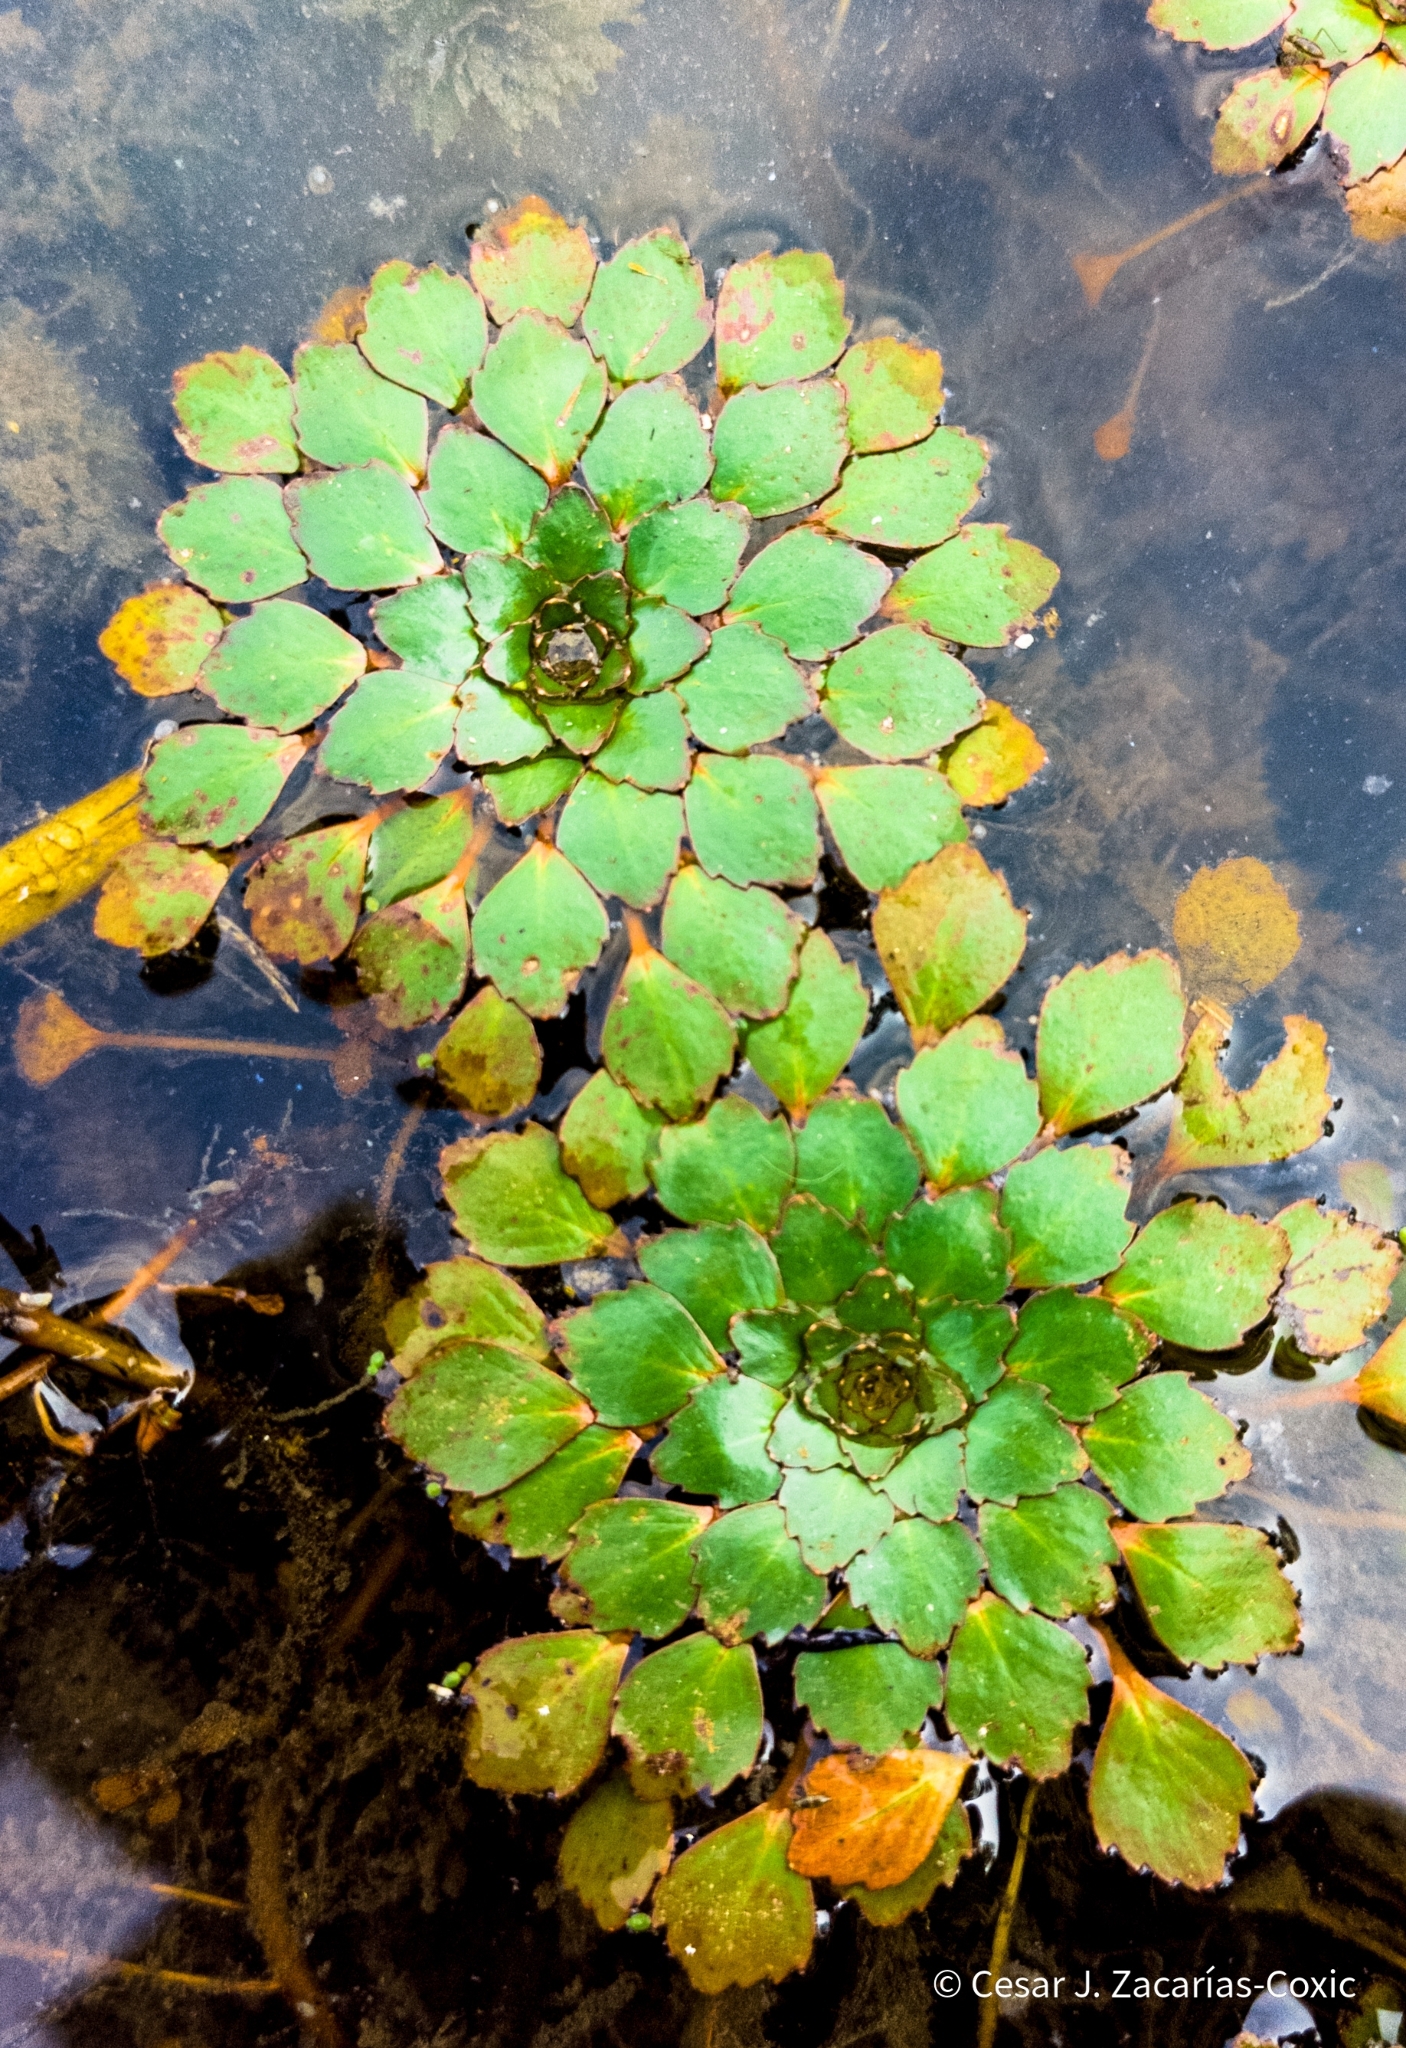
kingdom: Plantae
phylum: Tracheophyta
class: Magnoliopsida
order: Myrtales
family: Onagraceae
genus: Ludwigia
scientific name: Ludwigia sedioides
